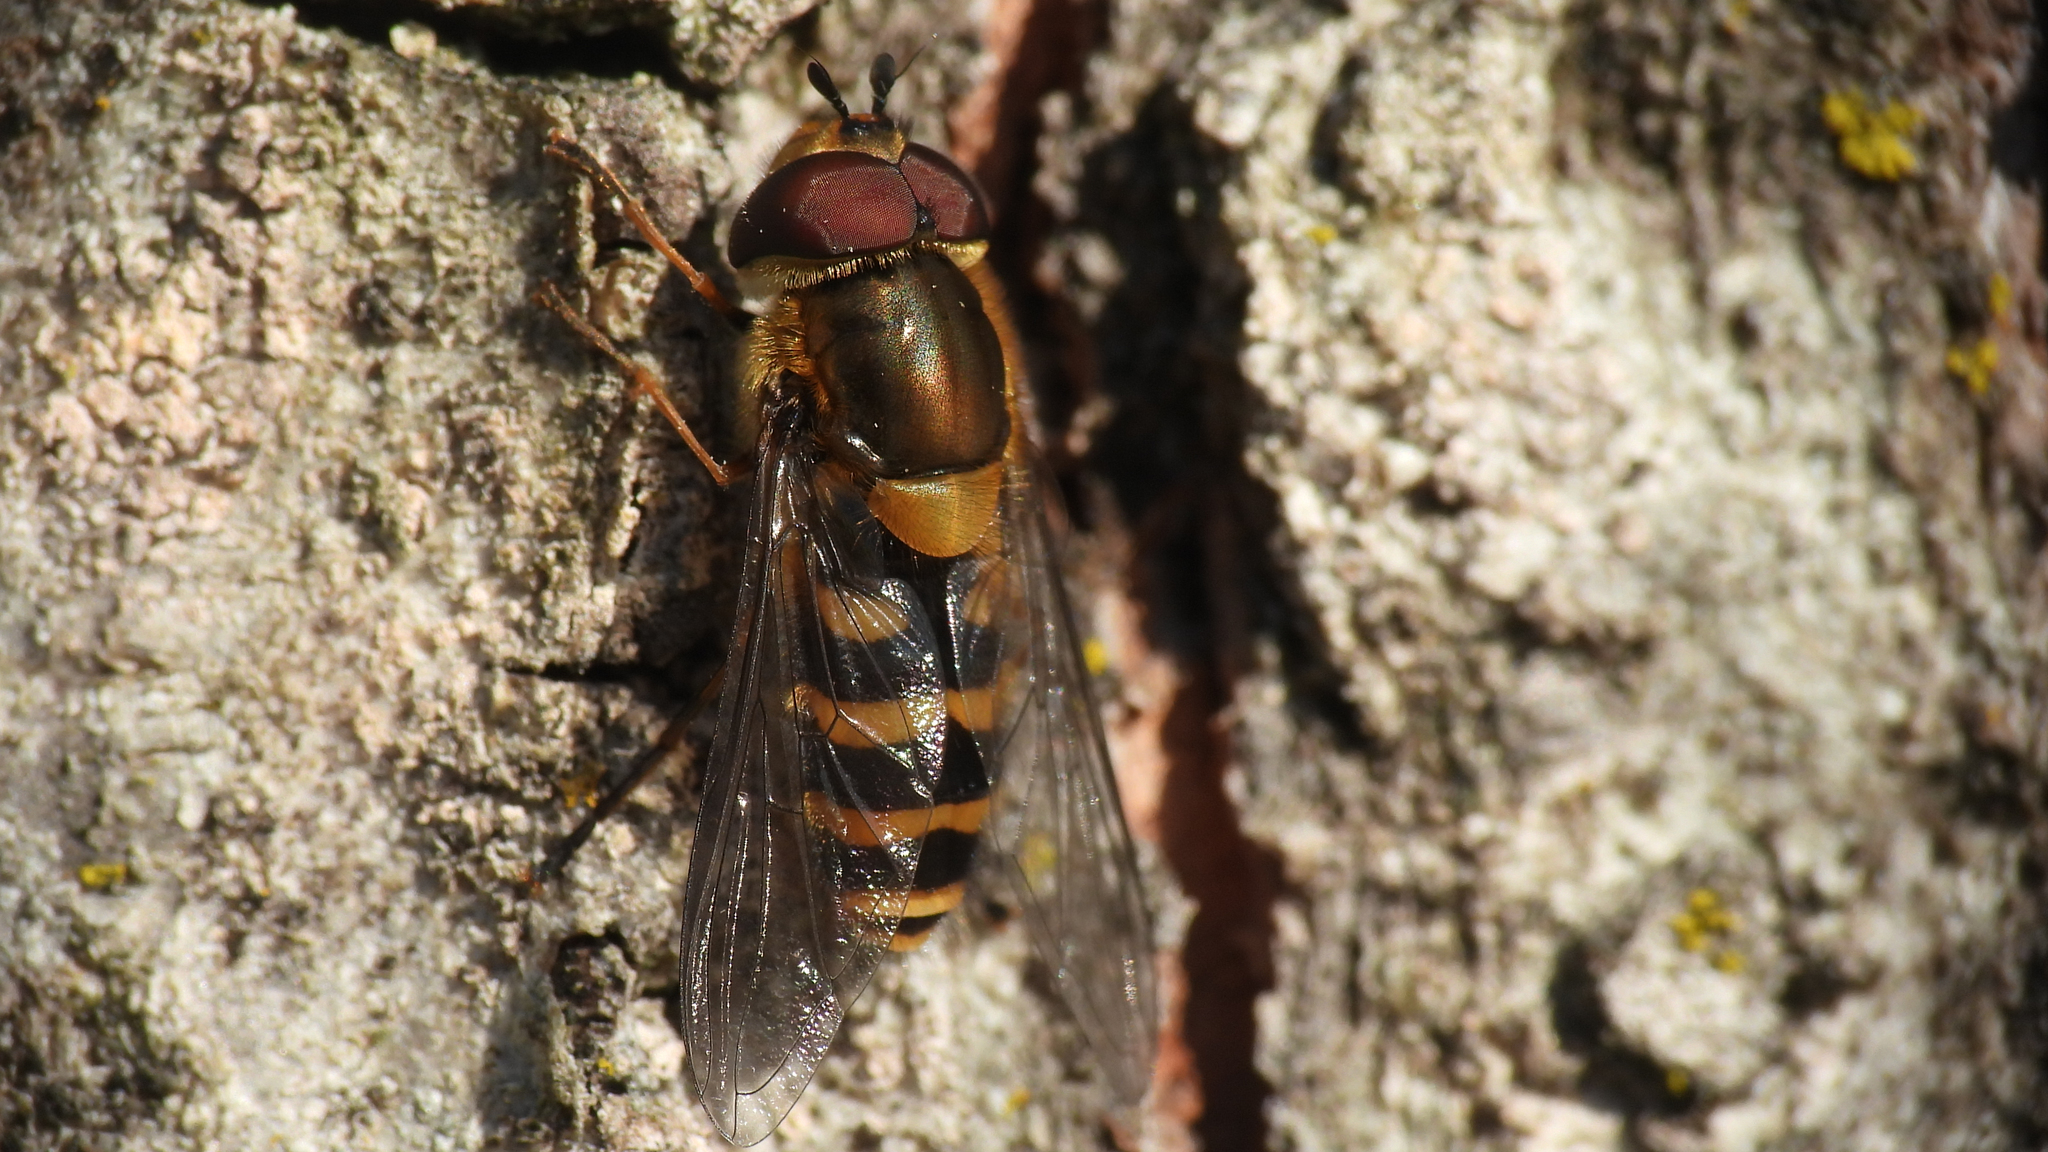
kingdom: Animalia
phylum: Arthropoda
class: Insecta
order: Diptera
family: Syrphidae
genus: Syrphus
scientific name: Syrphus torvus
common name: Hairy-eyed flower fly
